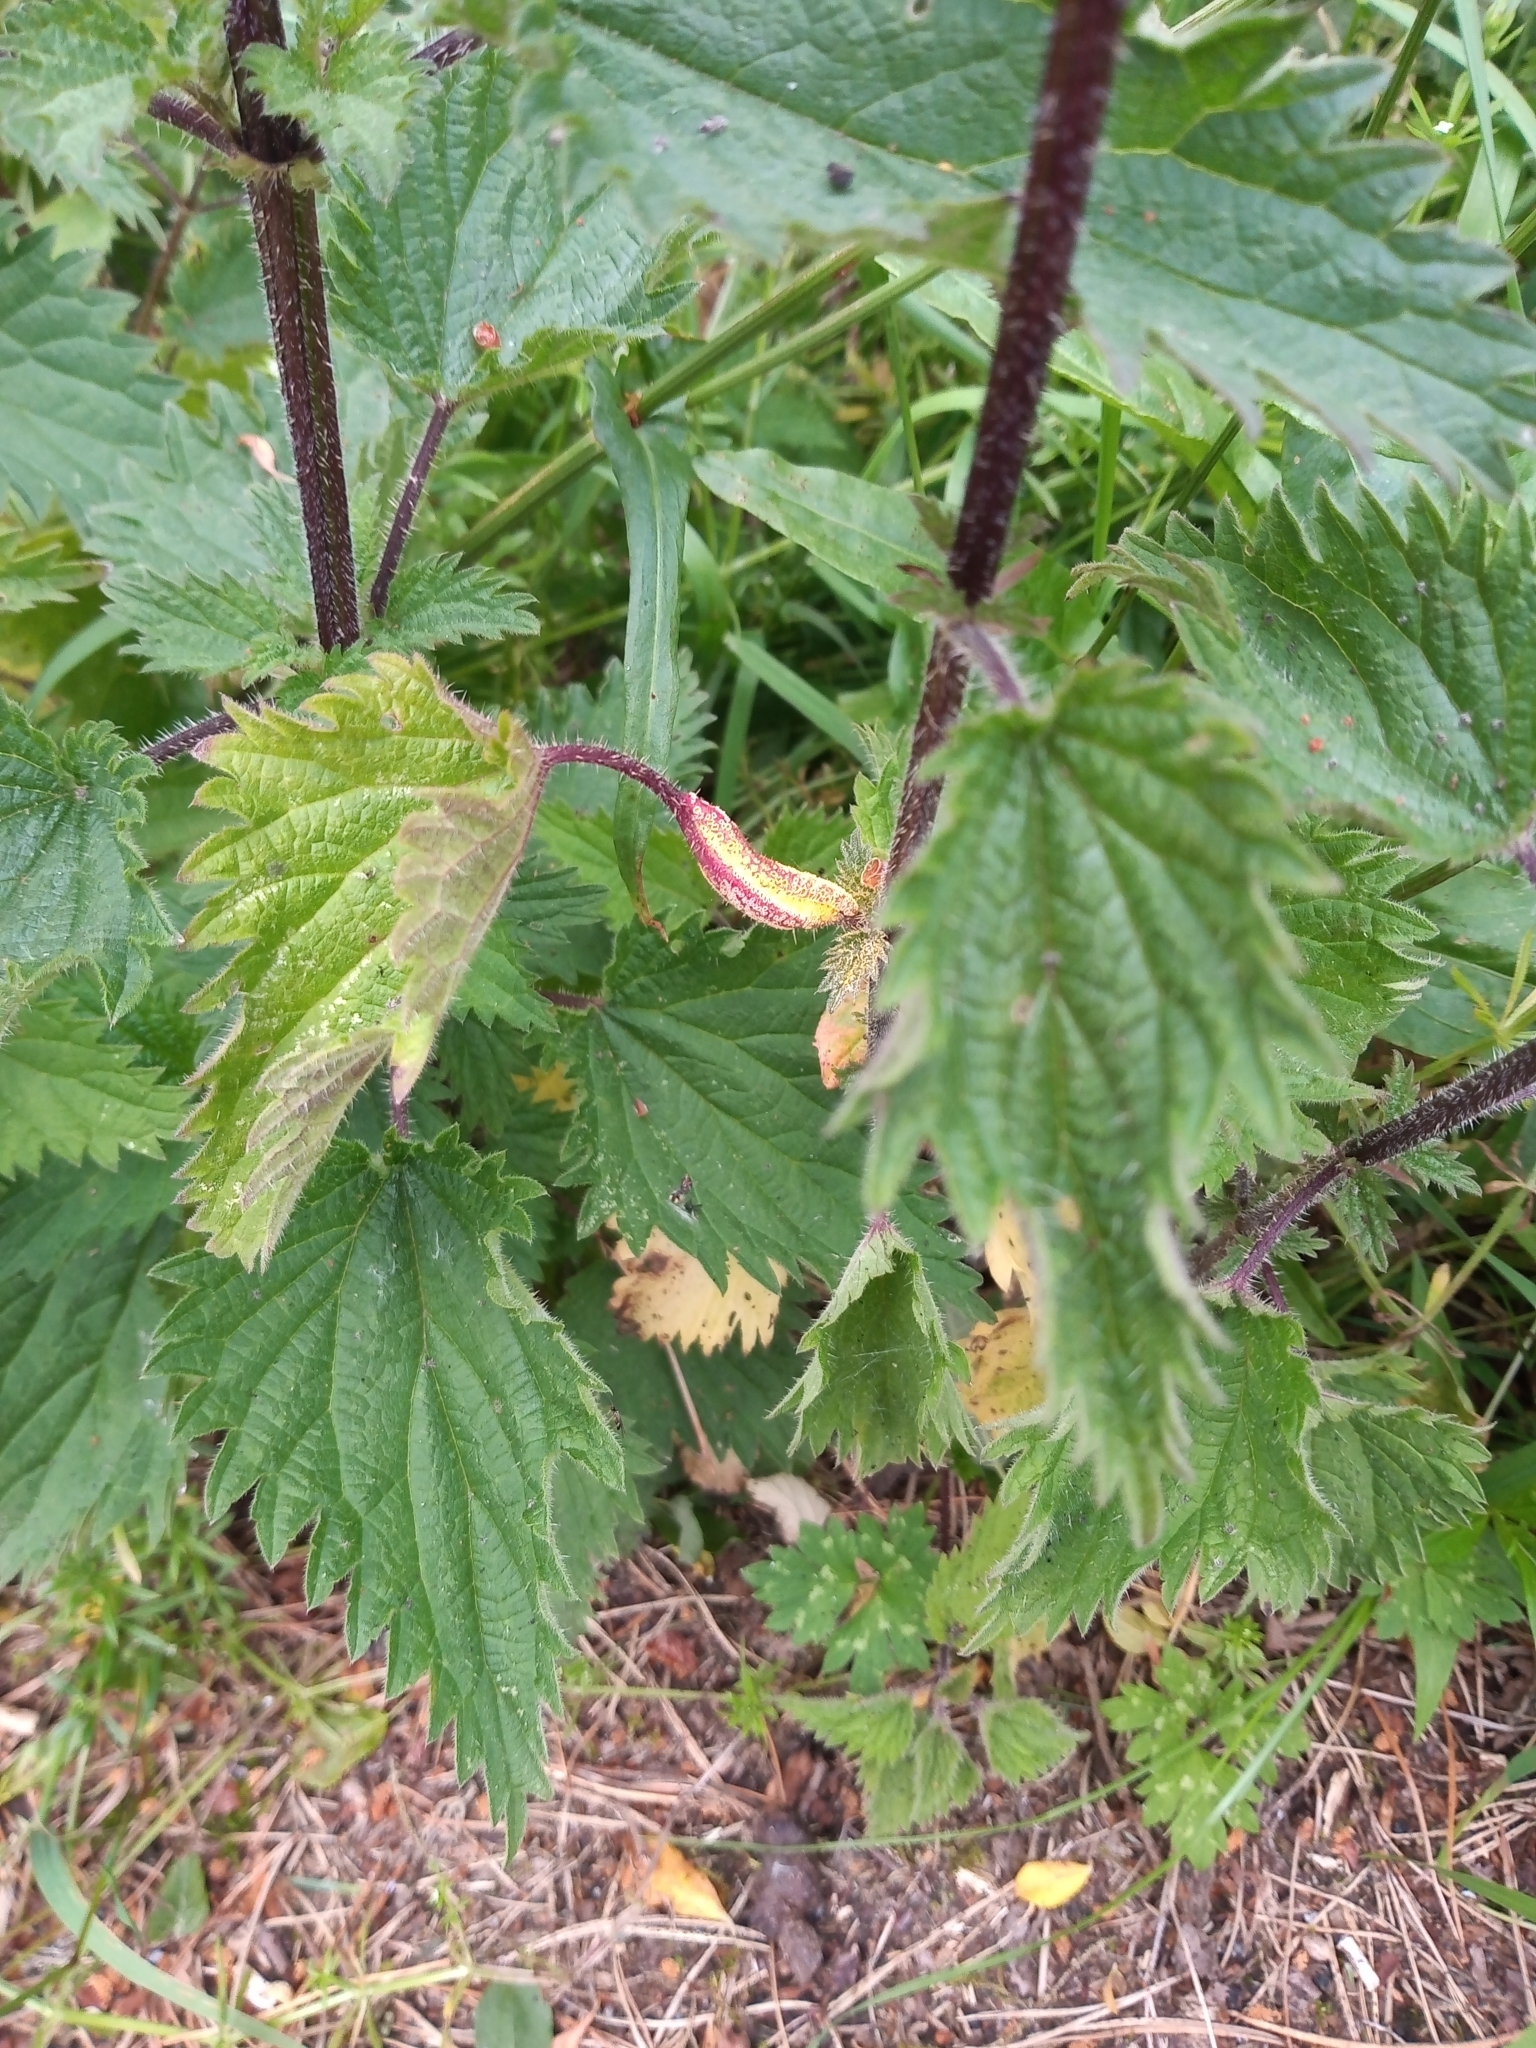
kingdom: Fungi
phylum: Basidiomycota
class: Pucciniomycetes
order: Pucciniales
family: Pucciniaceae
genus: Puccinia
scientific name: Puccinia urticata
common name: Nettle clustercup rust fungus
